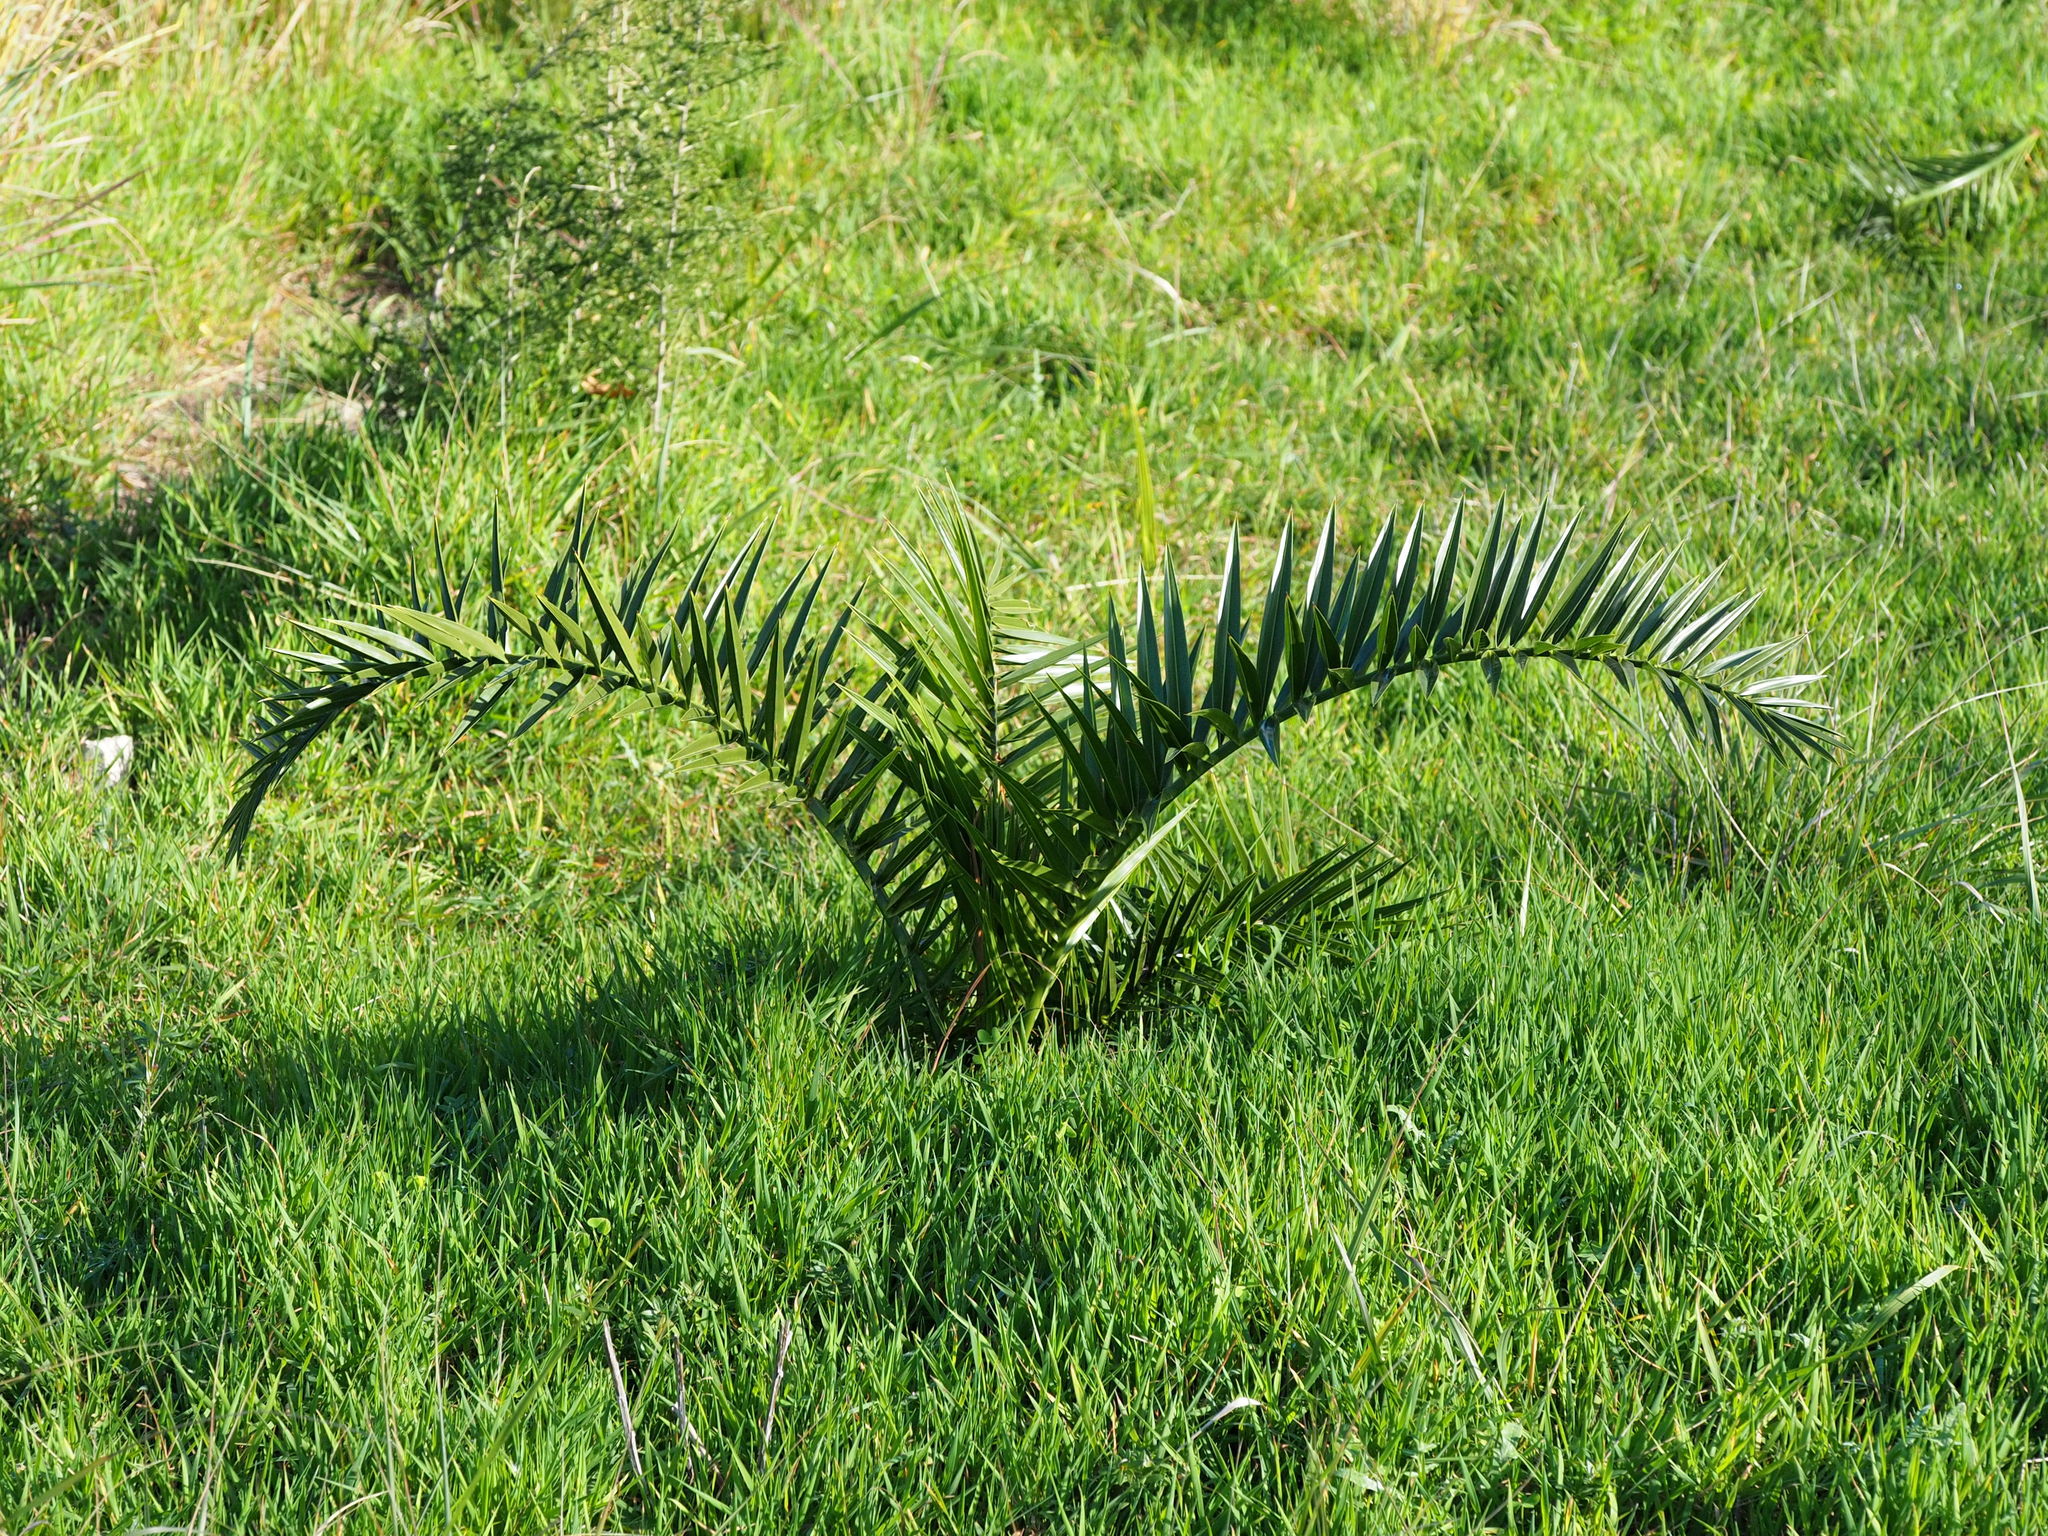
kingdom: Plantae
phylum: Tracheophyta
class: Liliopsida
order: Arecales
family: Arecaceae
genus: Phoenix
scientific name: Phoenix canariensis
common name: Canary island date palm
